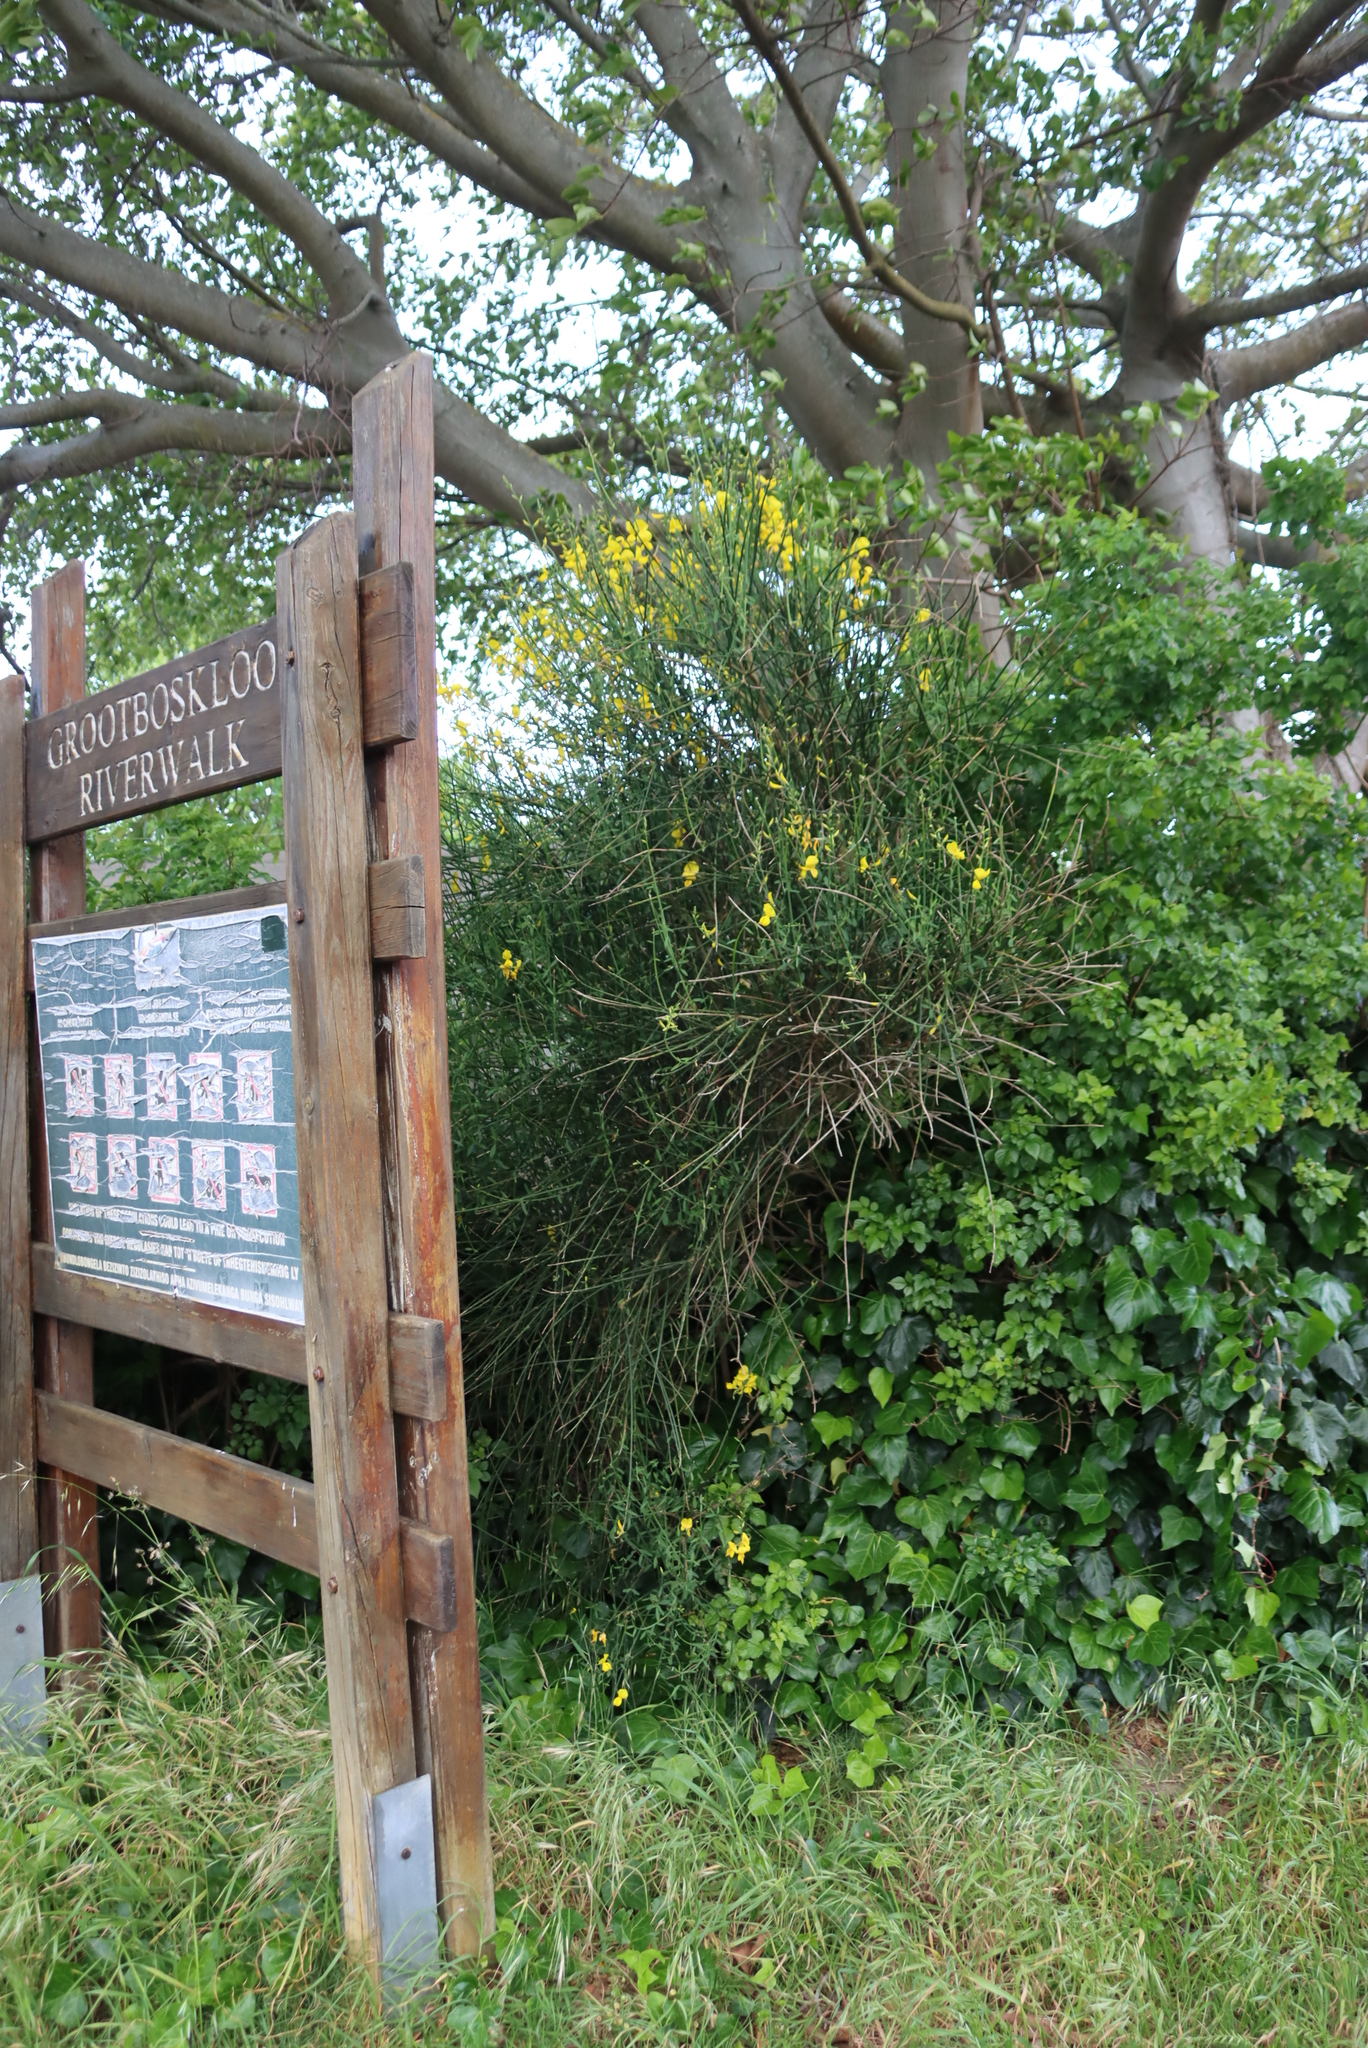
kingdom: Plantae
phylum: Tracheophyta
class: Magnoliopsida
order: Fabales
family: Fabaceae
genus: Spartium
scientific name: Spartium junceum
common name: Spanish broom
